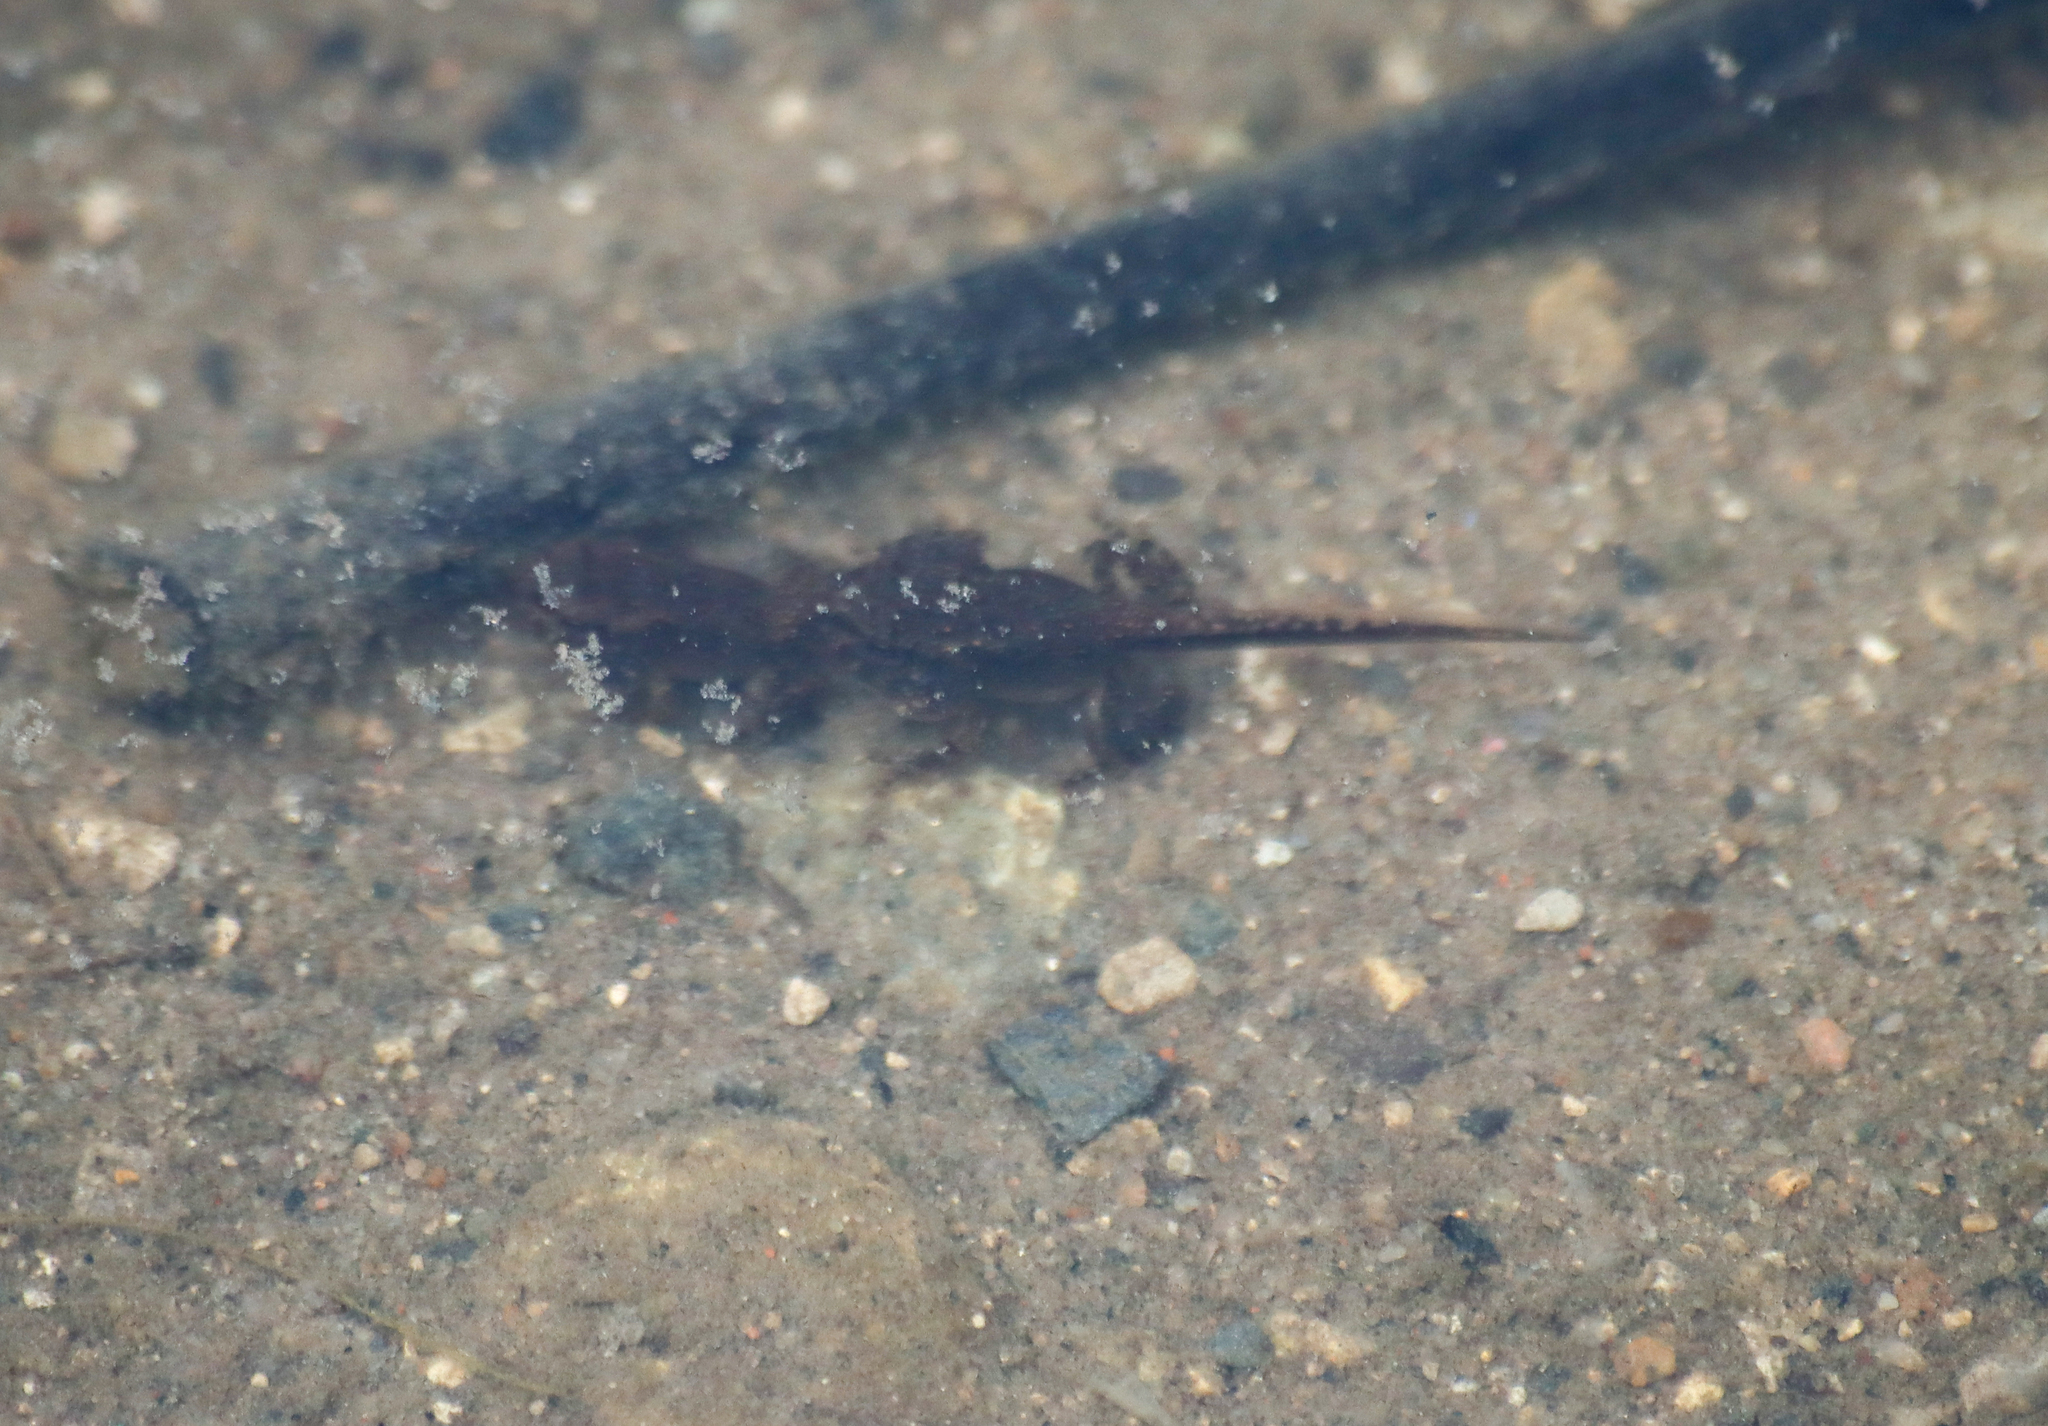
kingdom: Animalia
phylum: Chordata
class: Amphibia
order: Anura
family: Bufonidae
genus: Anaxyrus
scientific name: Anaxyrus americanus
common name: American toad
